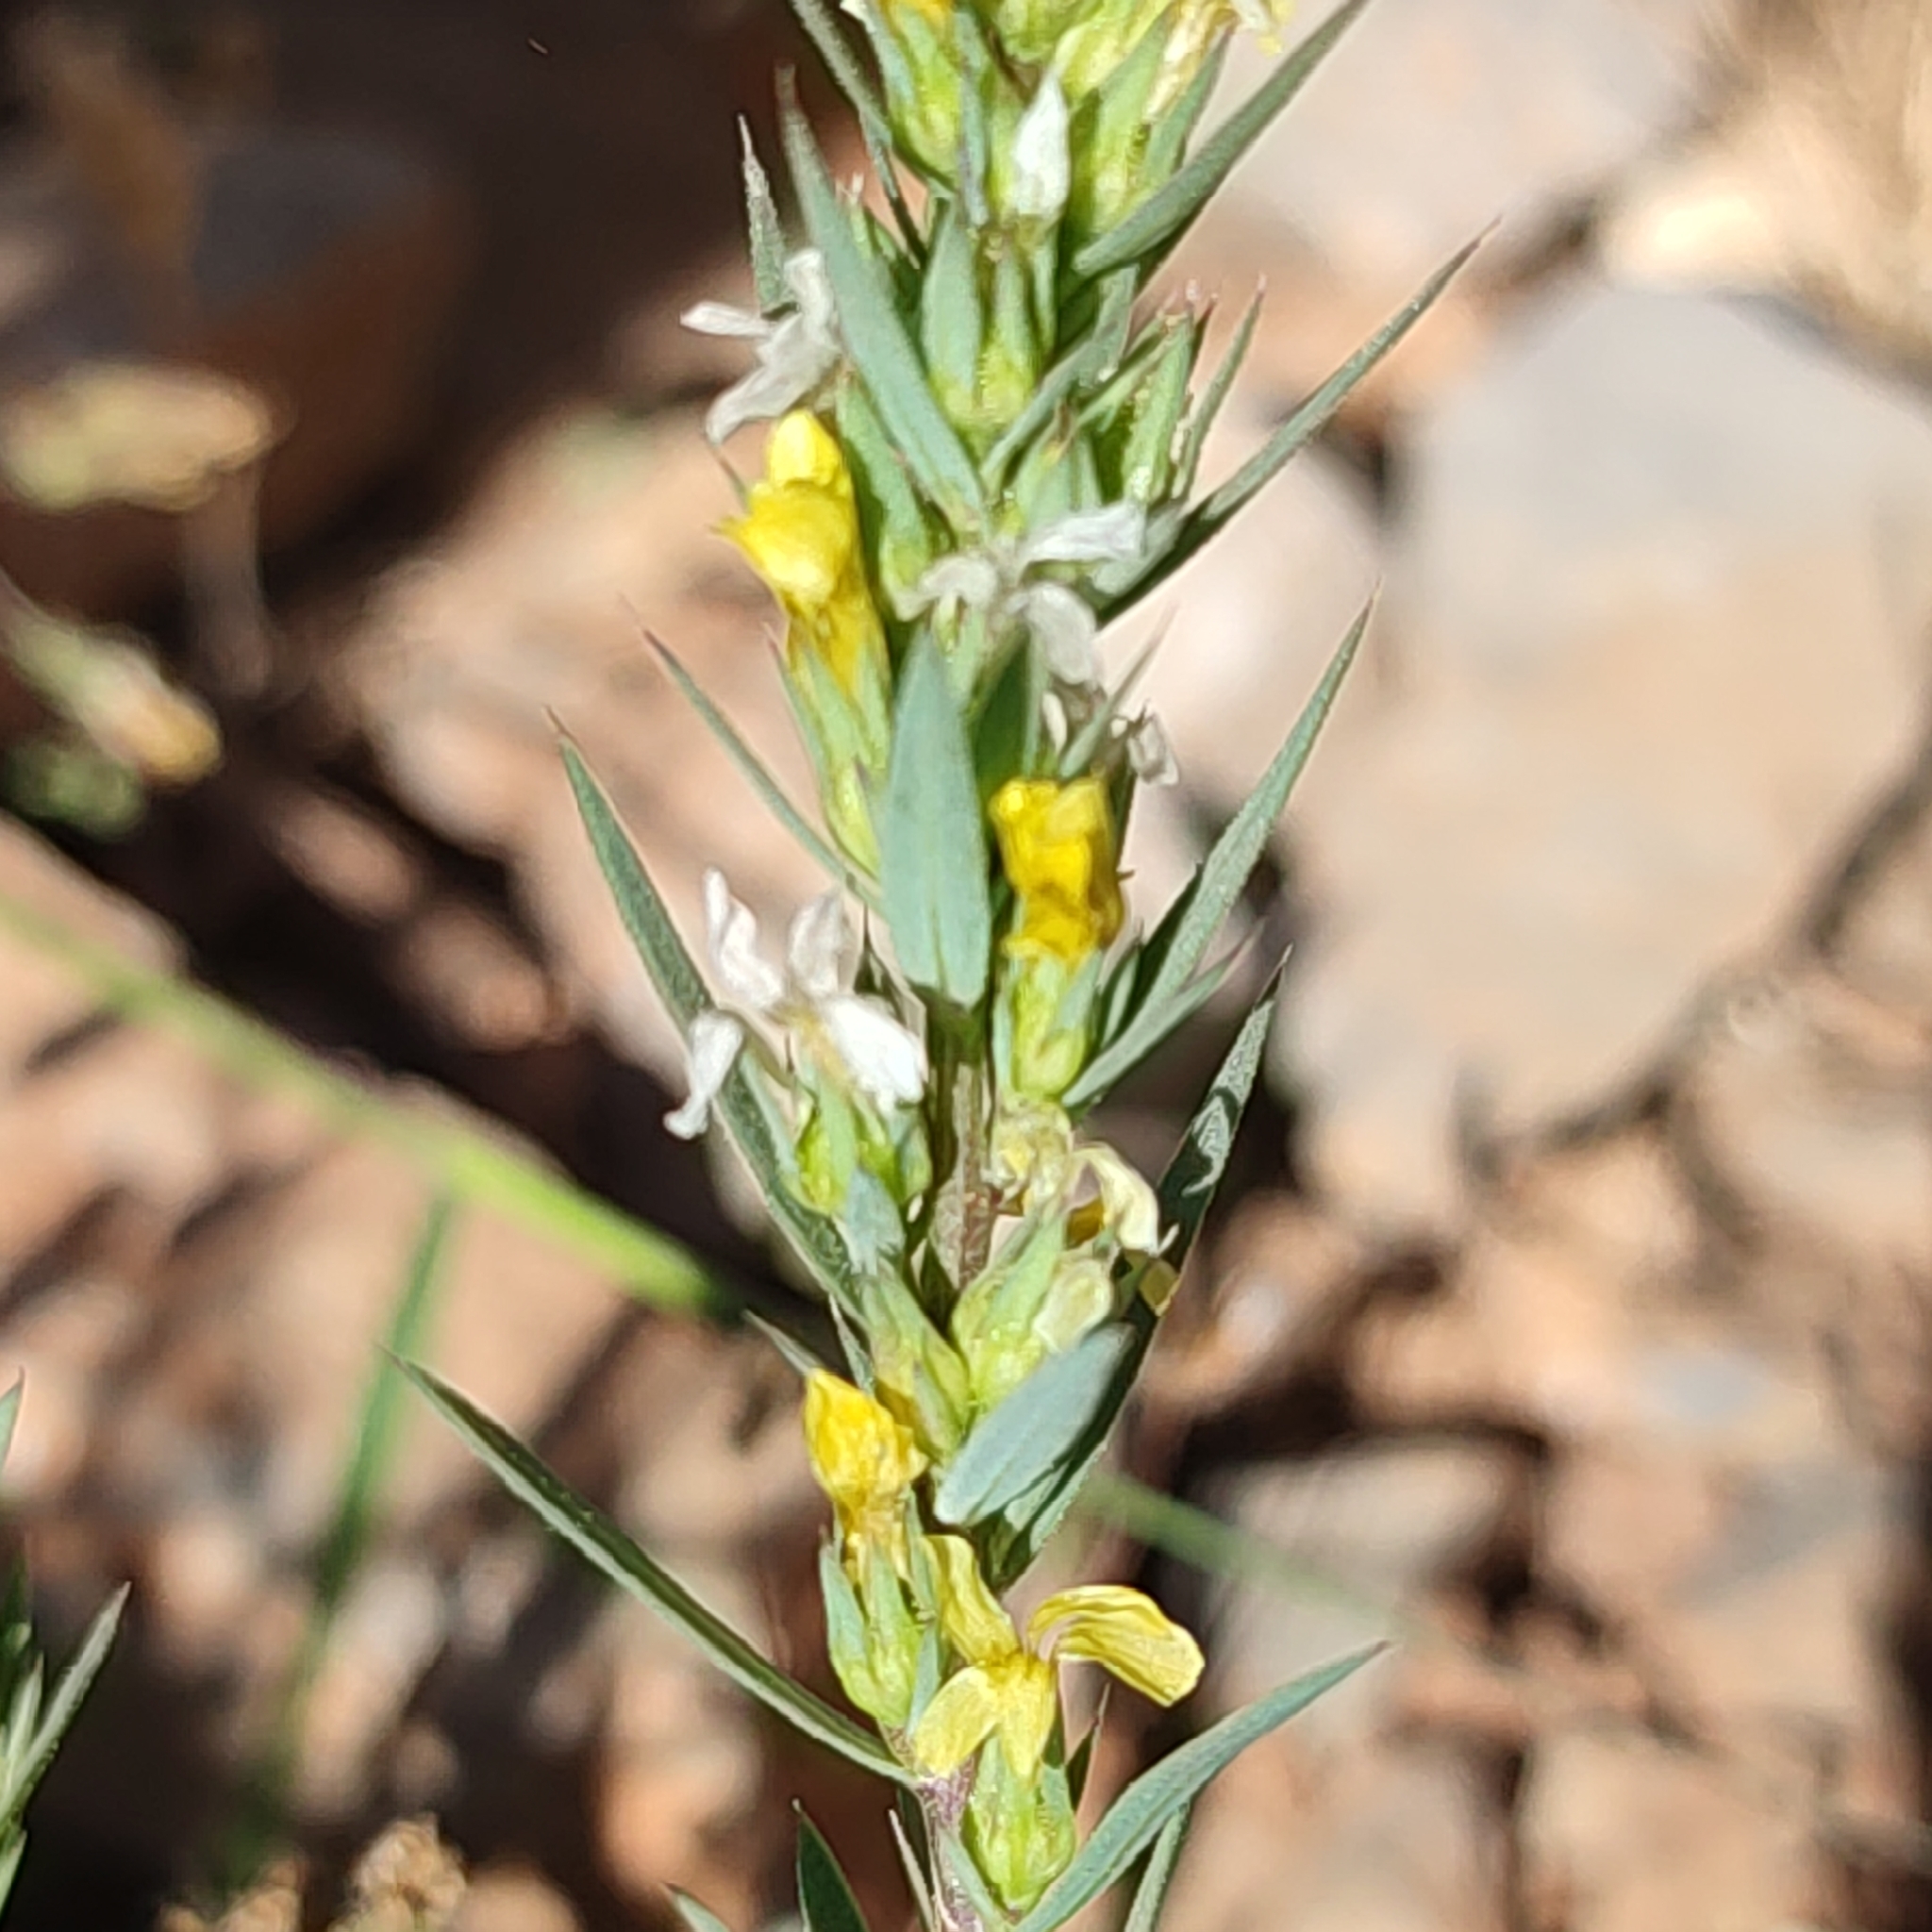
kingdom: Plantae
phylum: Tracheophyta
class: Magnoliopsida
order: Malpighiales
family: Linaceae
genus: Linum
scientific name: Linum strictum
